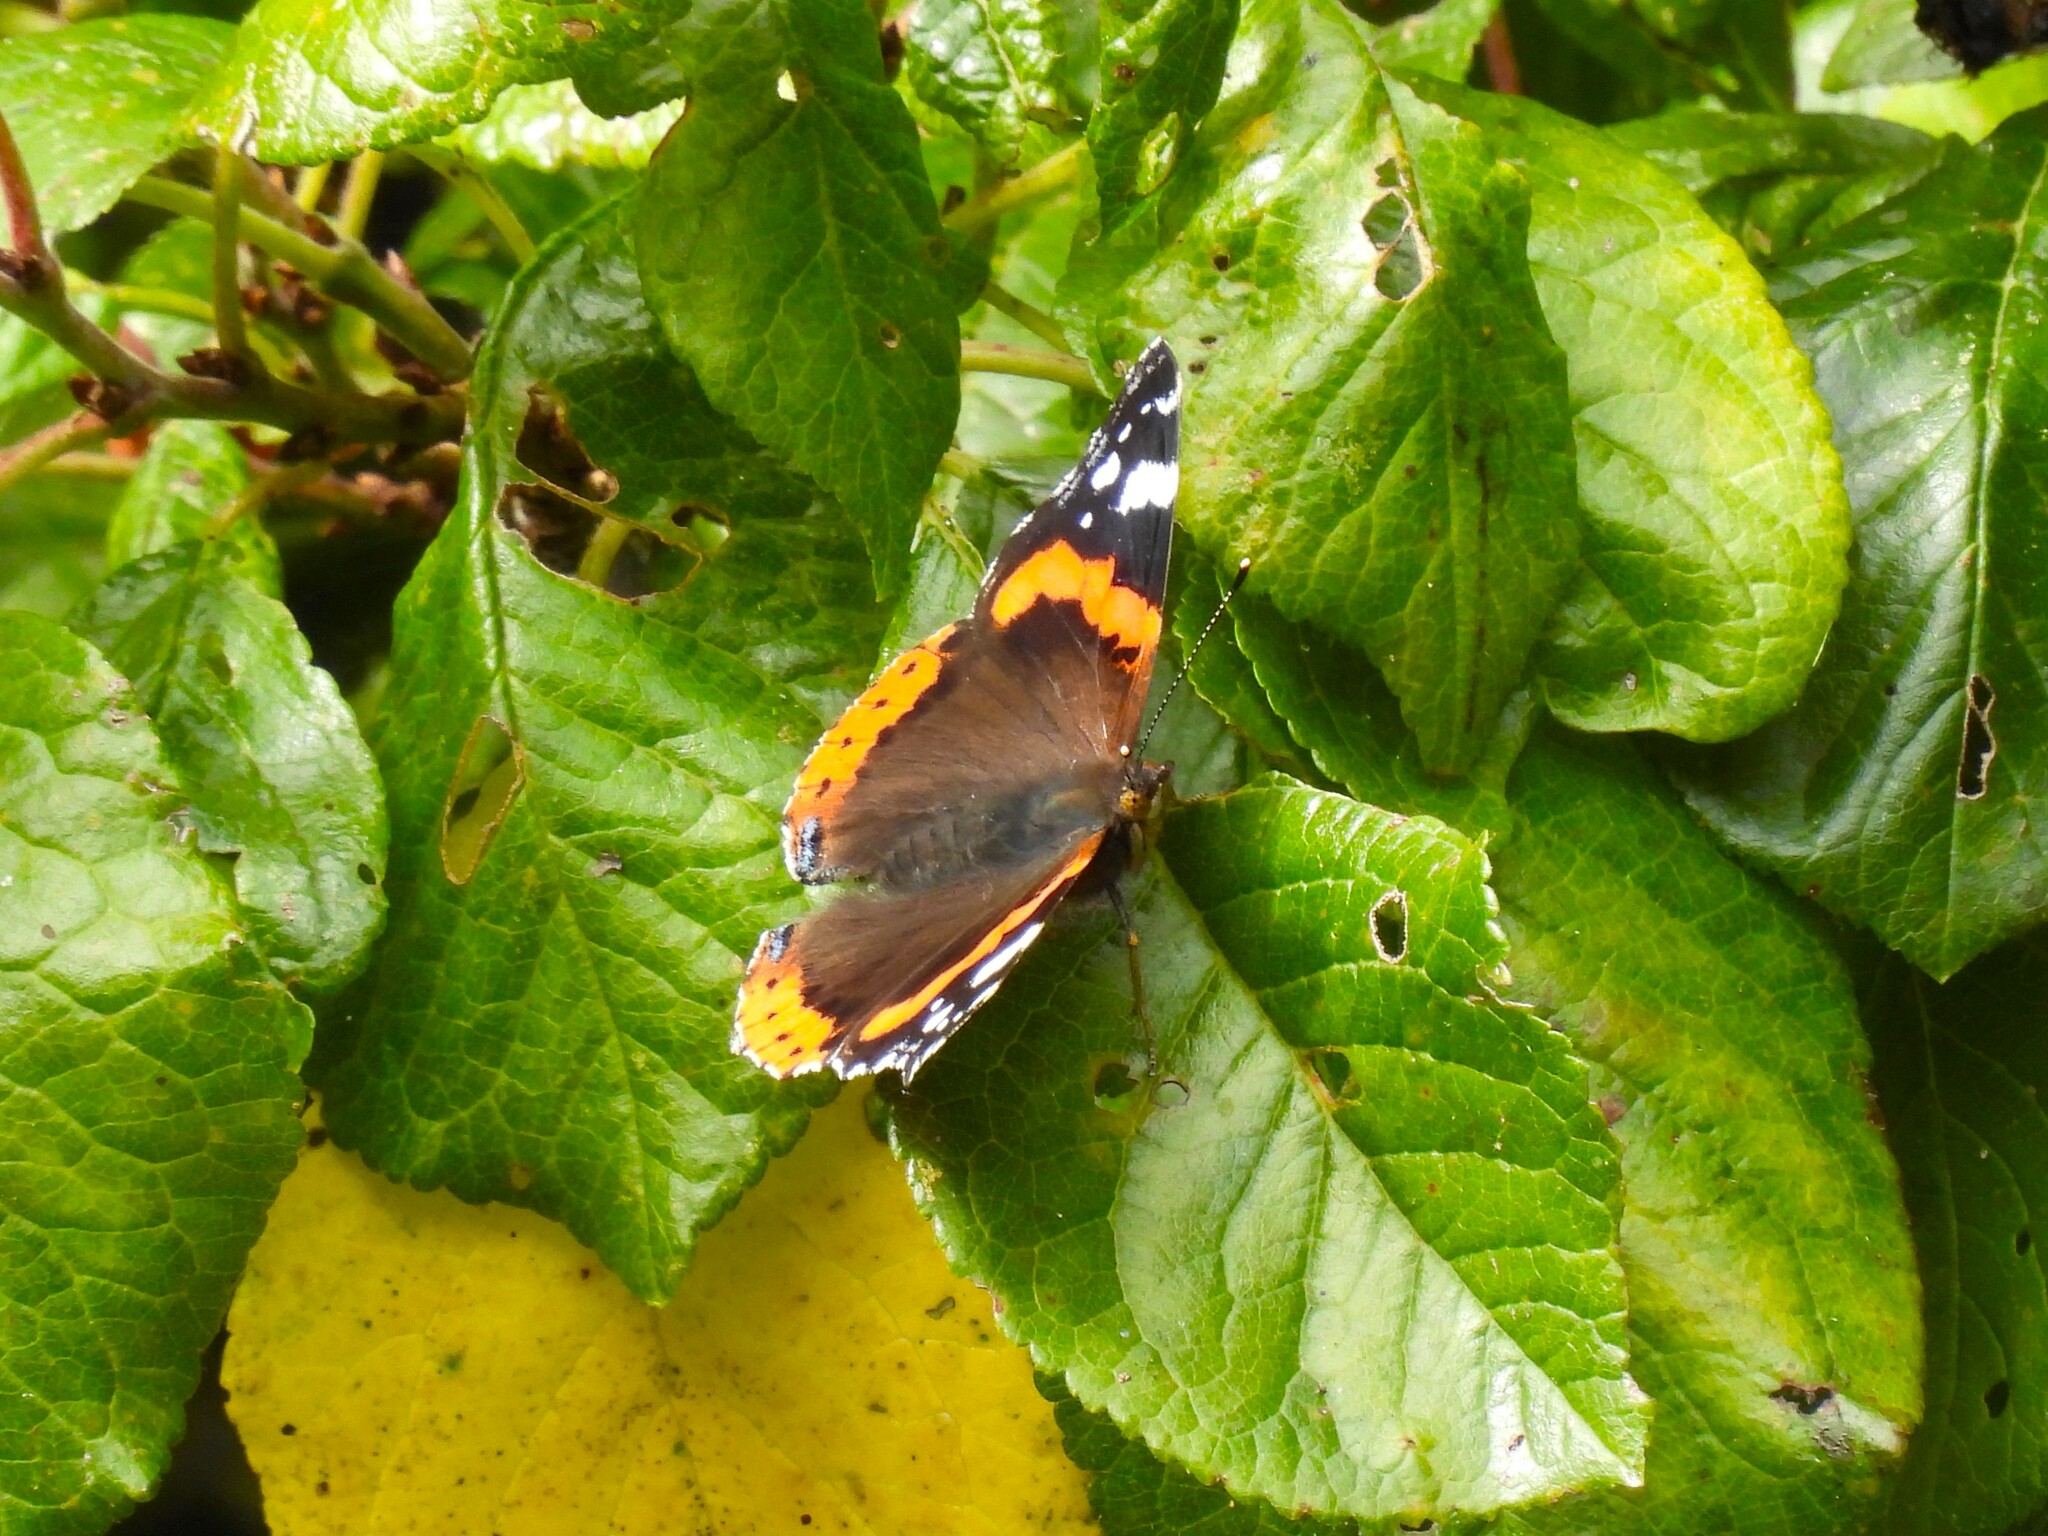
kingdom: Animalia
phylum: Arthropoda
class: Insecta
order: Lepidoptera
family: Nymphalidae
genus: Vanessa
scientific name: Vanessa atalanta
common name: Red admiral
